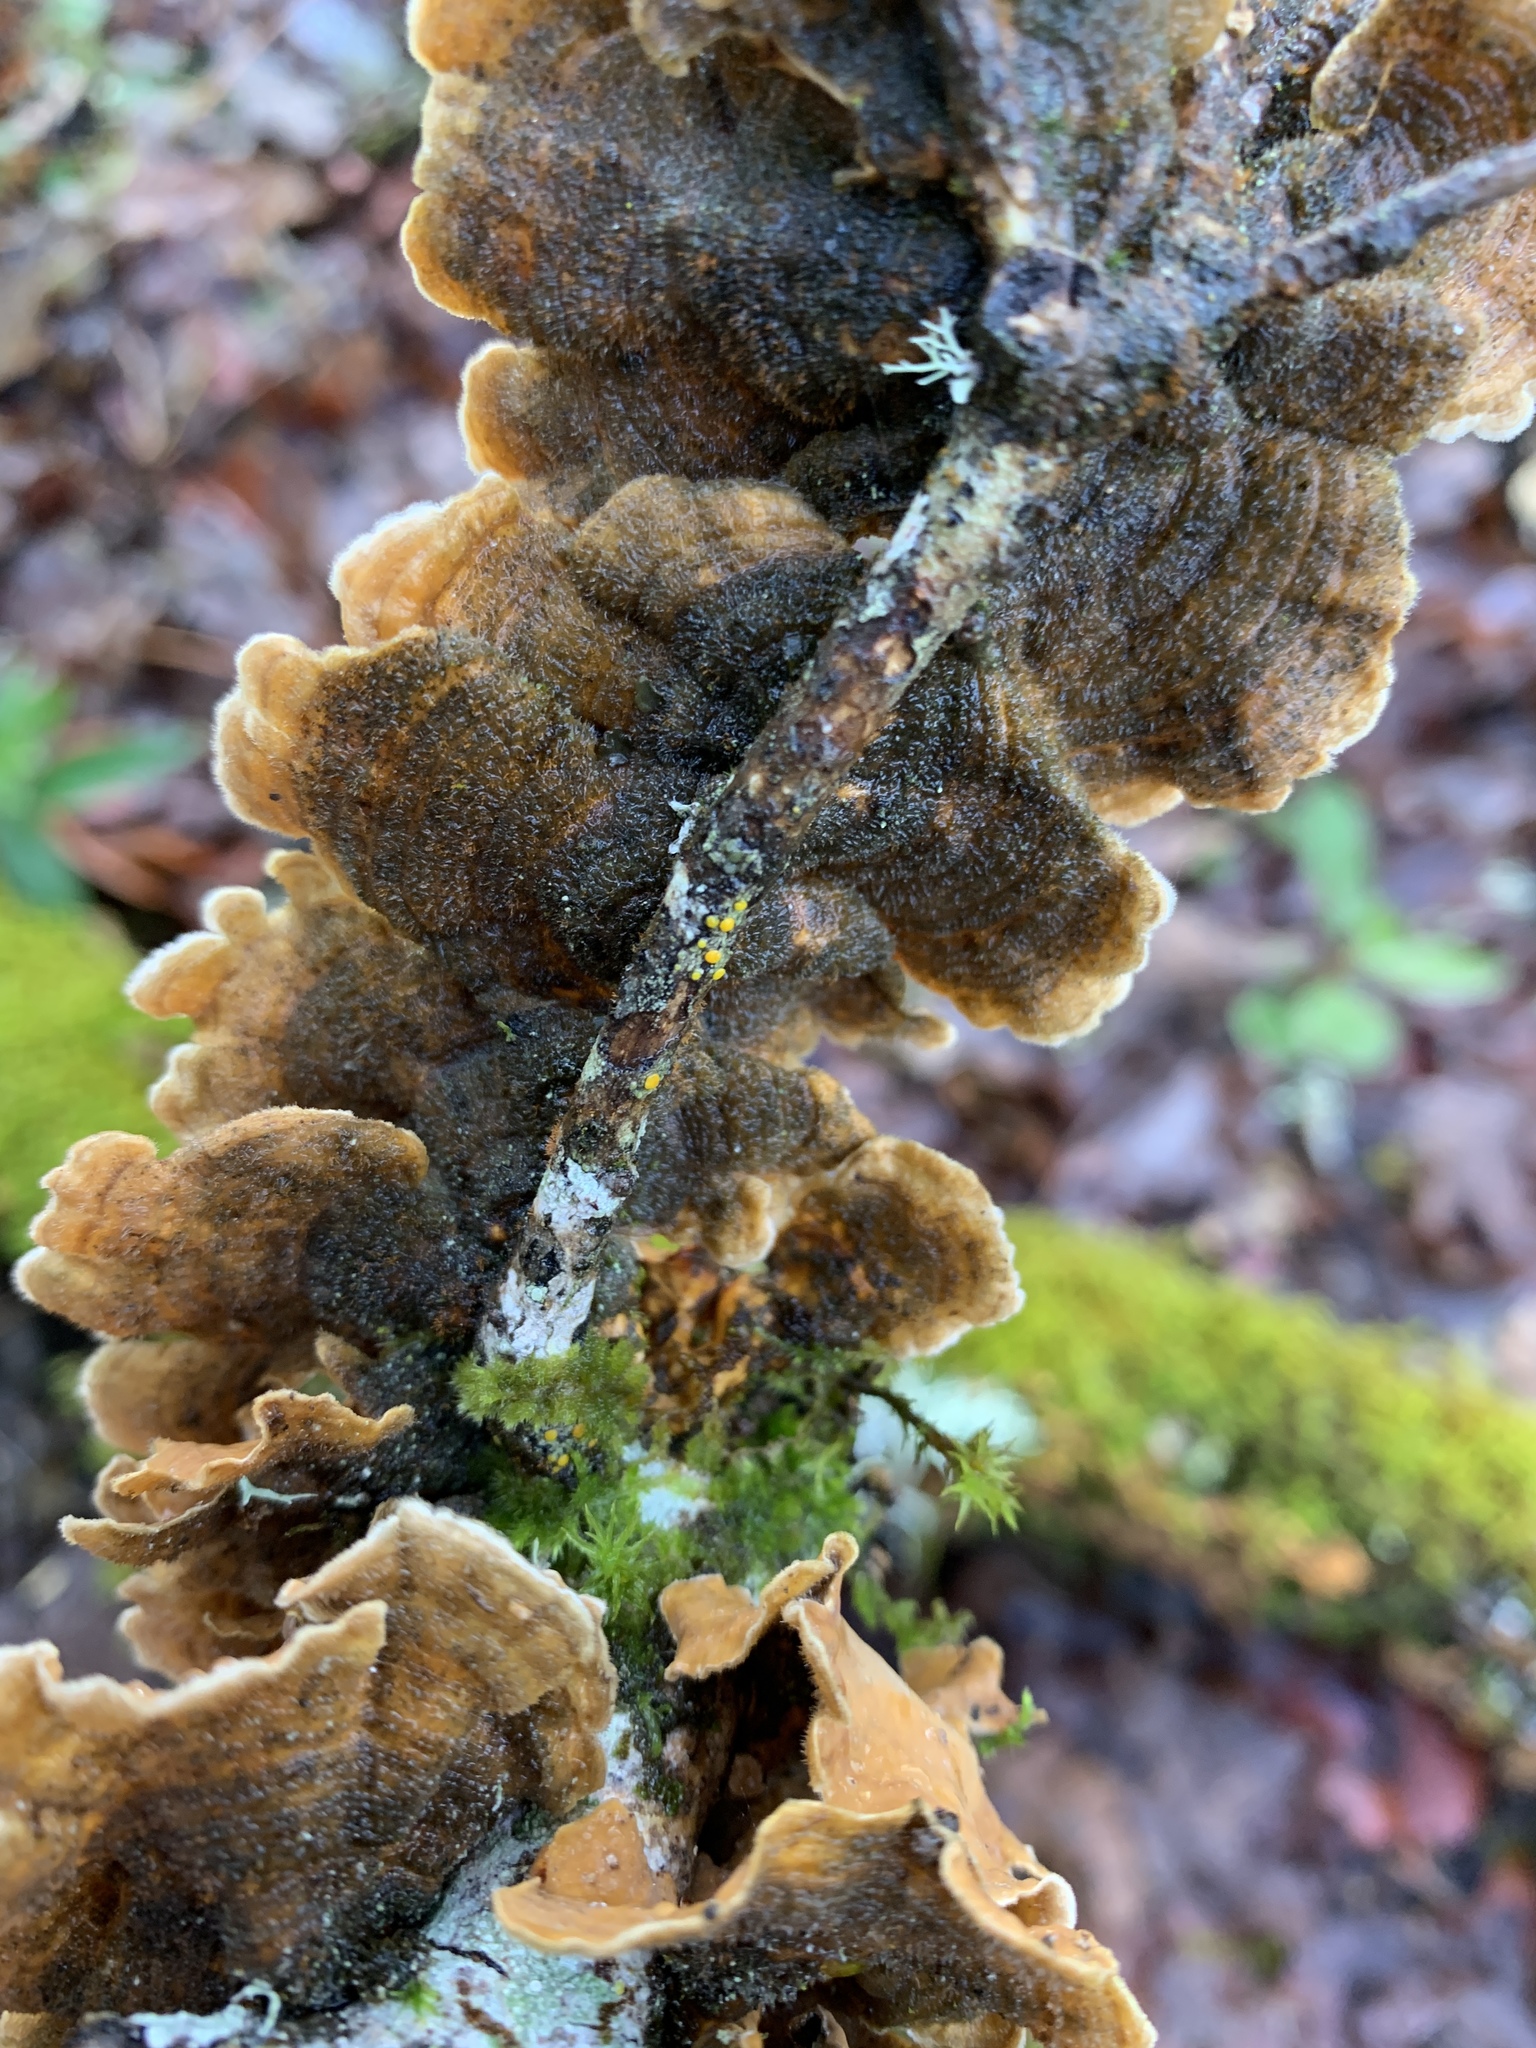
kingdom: Fungi
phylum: Basidiomycota
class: Agaricomycetes
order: Russulales
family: Stereaceae
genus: Stereum
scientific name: Stereum hirsutum
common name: Hairy curtain crust
